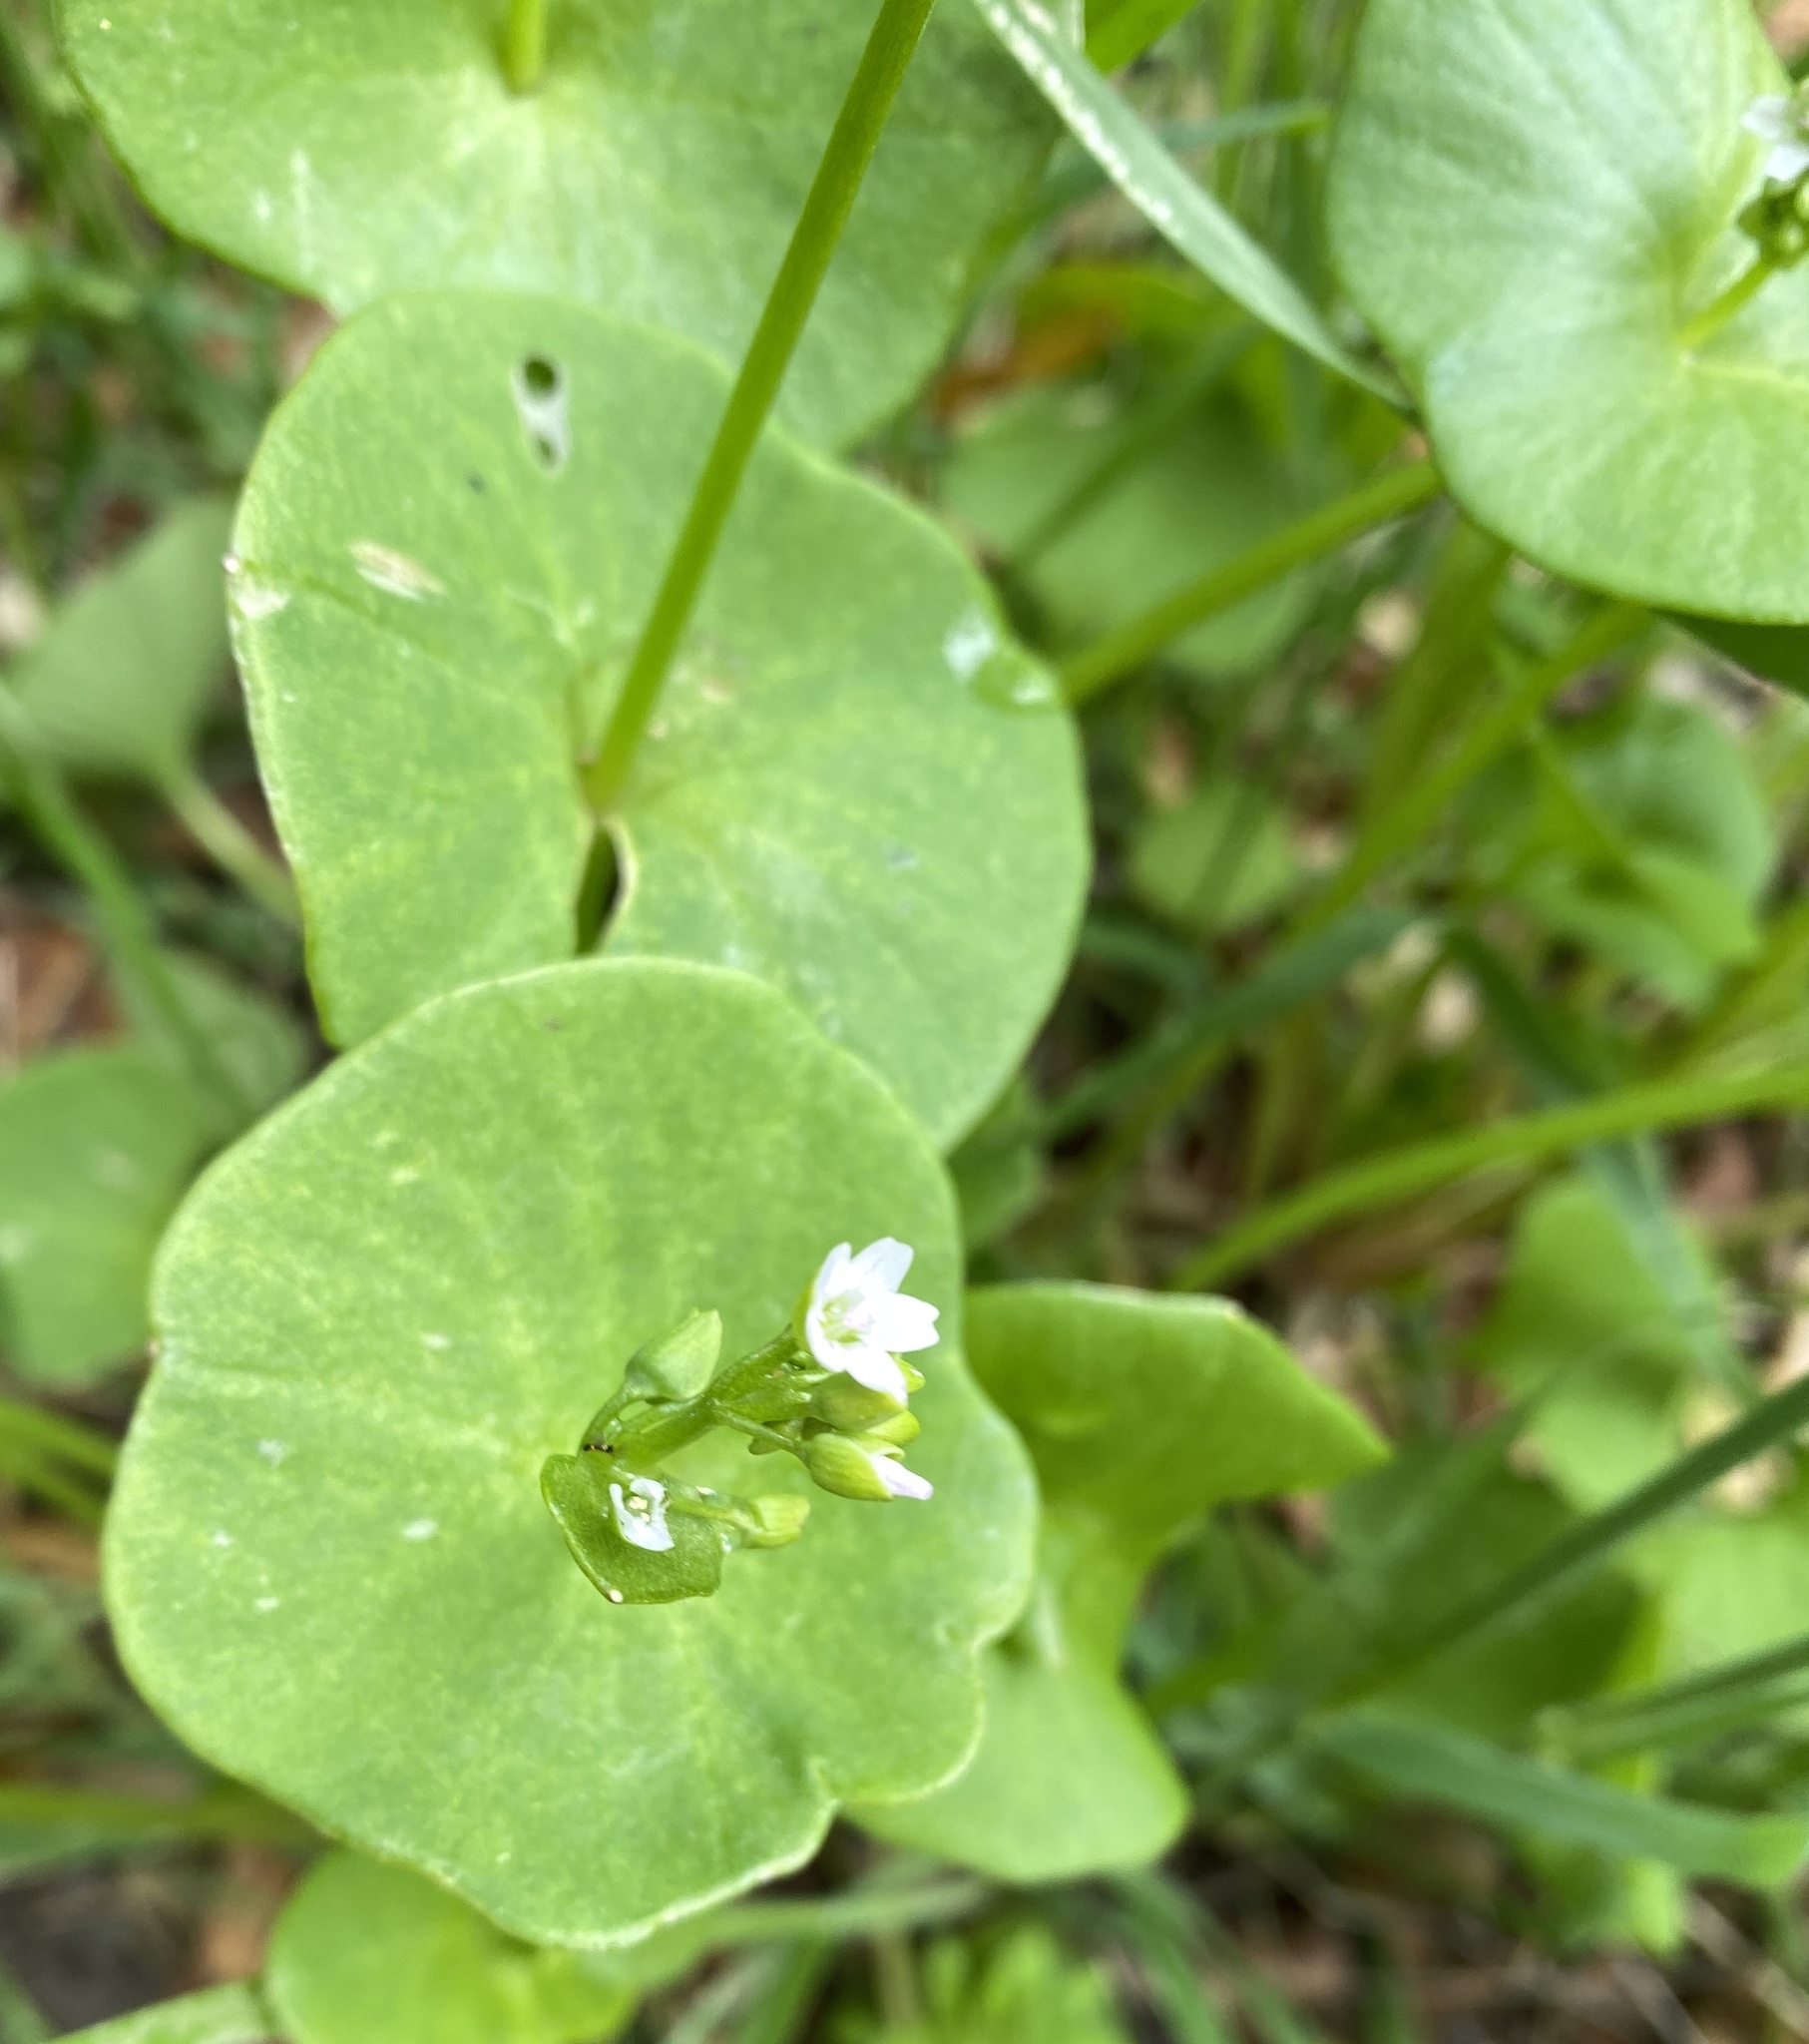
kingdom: Plantae
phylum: Tracheophyta
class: Magnoliopsida
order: Caryophyllales
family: Montiaceae
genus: Claytonia
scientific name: Claytonia perfoliata
